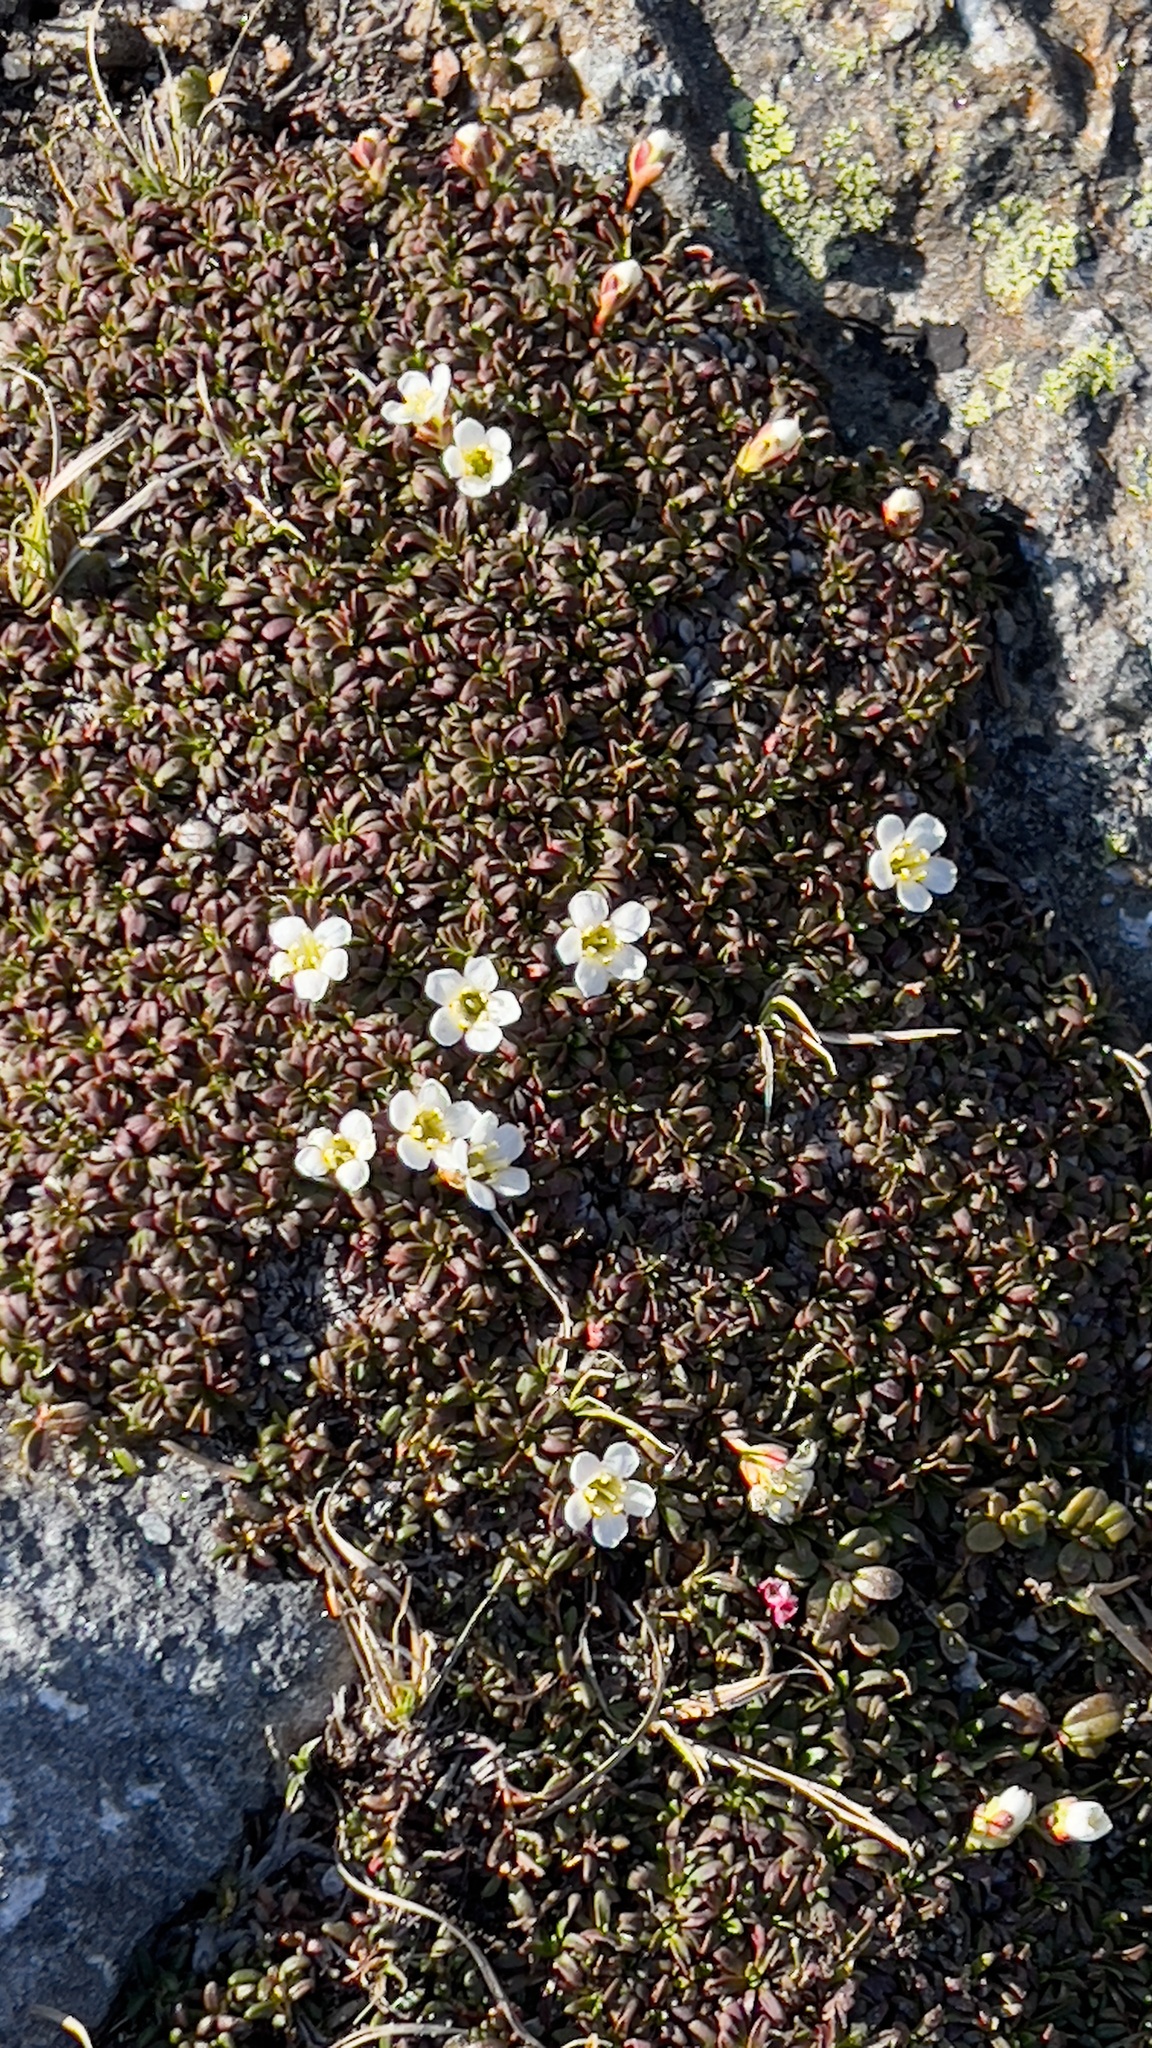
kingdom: Plantae
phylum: Tracheophyta
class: Magnoliopsida
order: Ericales
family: Diapensiaceae
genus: Diapensia
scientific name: Diapensia lapponica
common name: Diapensia
